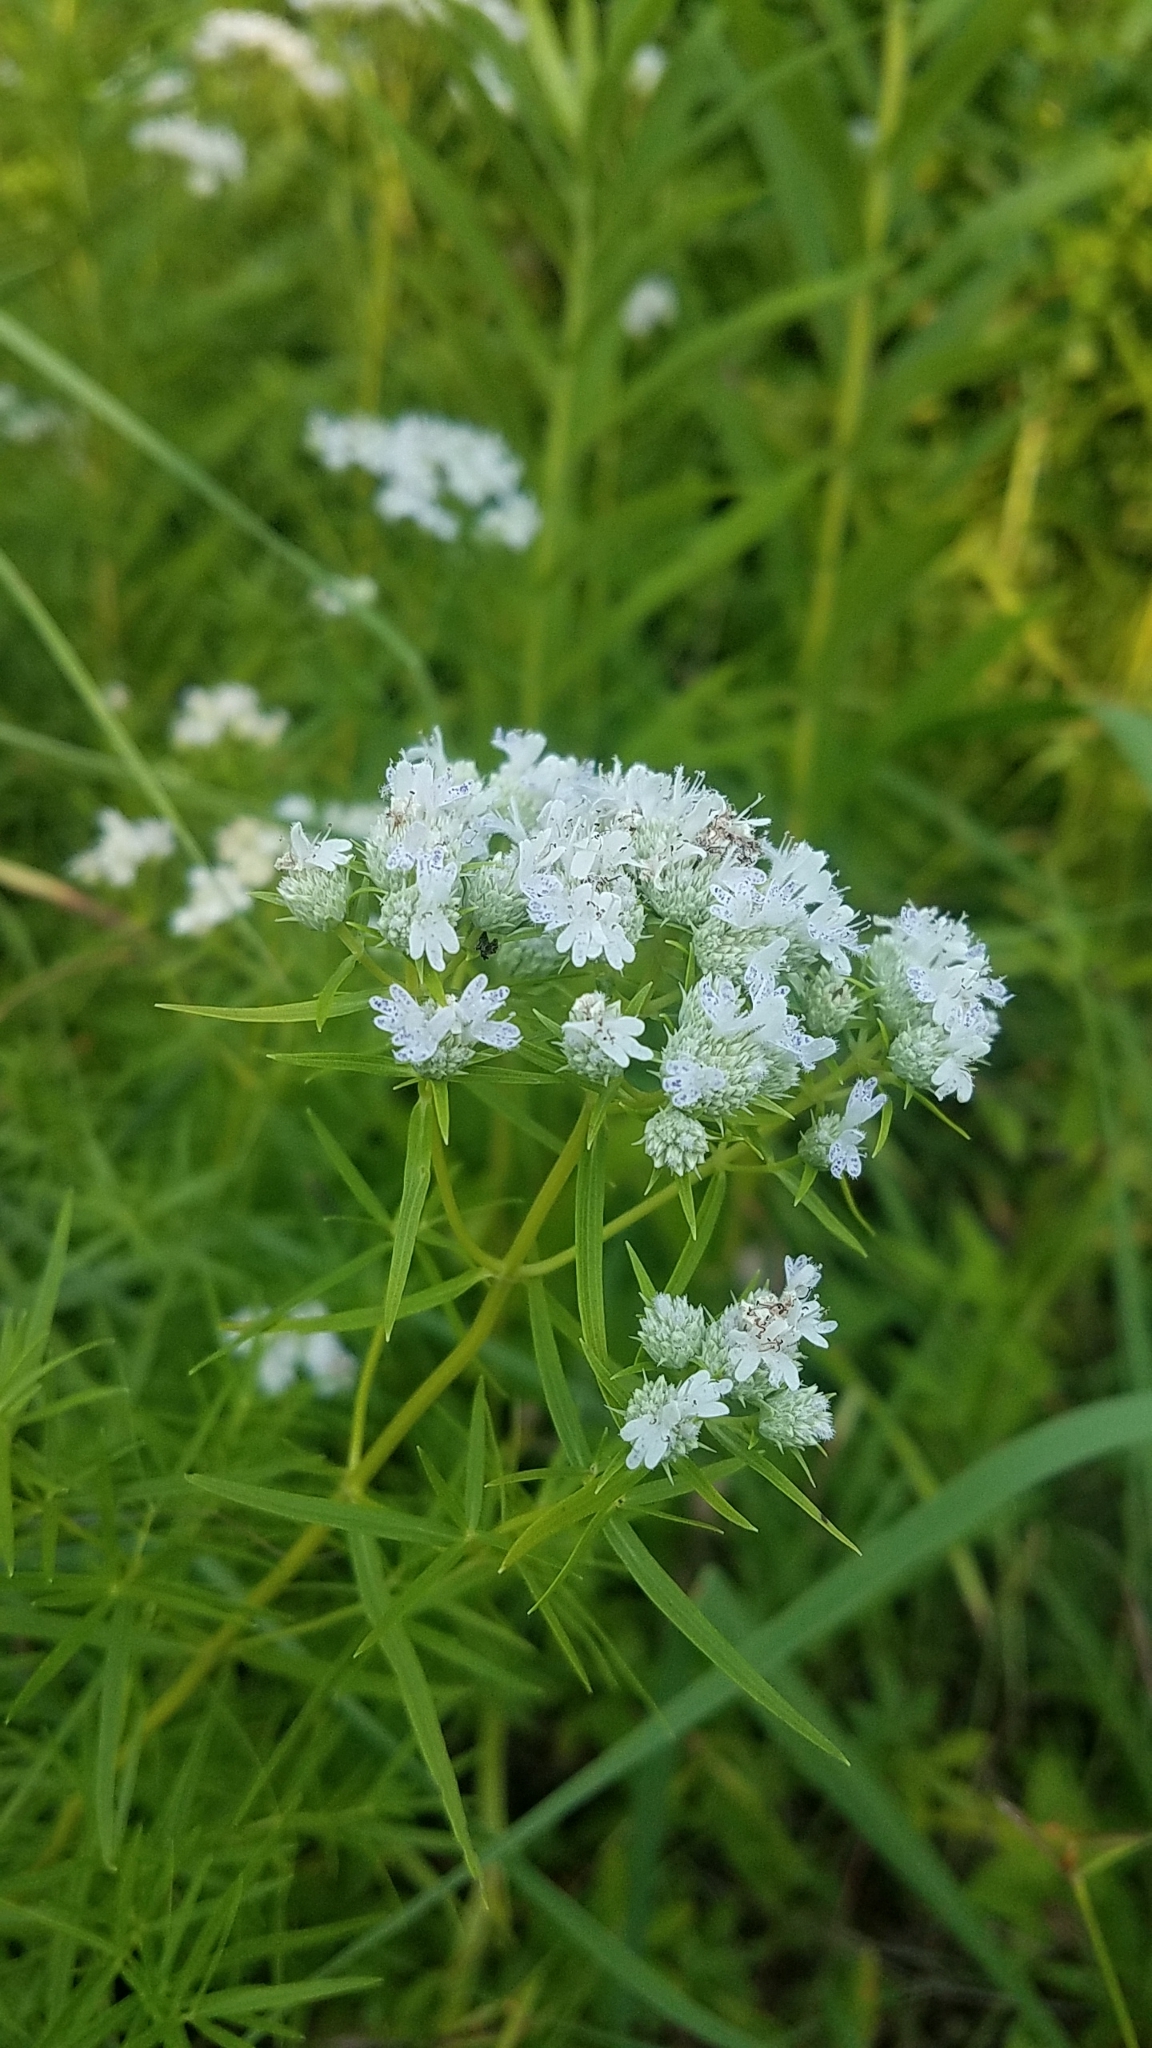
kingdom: Plantae
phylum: Tracheophyta
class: Magnoliopsida
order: Lamiales
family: Lamiaceae
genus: Pycnanthemum
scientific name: Pycnanthemum tenuifolium
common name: Narrow-leaf mountain-mint
